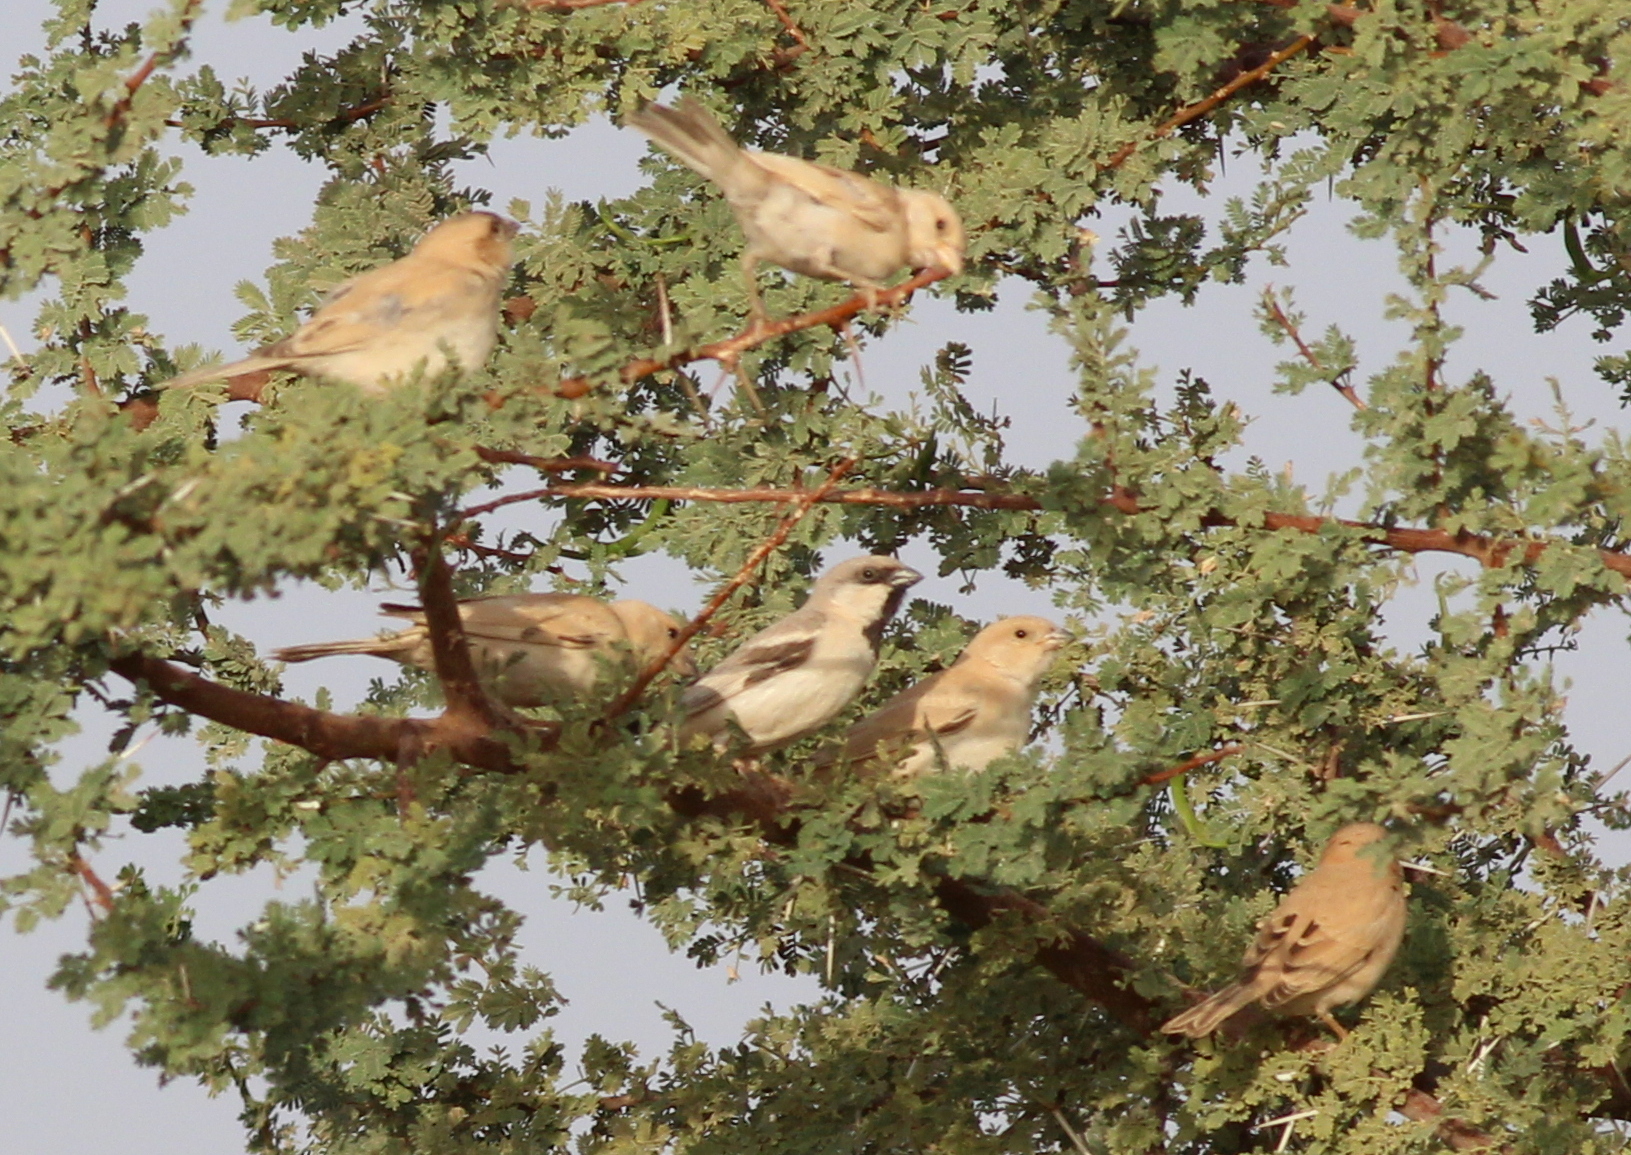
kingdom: Animalia
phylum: Chordata
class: Aves
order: Passeriformes
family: Passeridae
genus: Passer
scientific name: Passer simplex
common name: Desert sparrow
